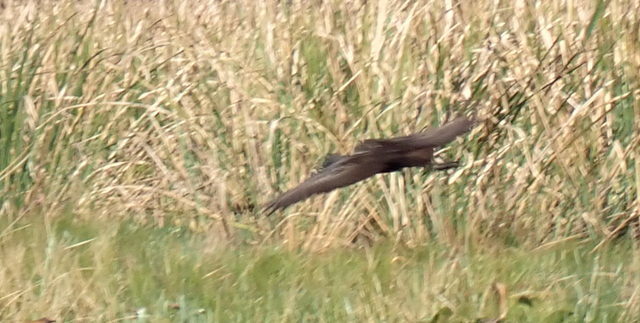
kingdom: Animalia
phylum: Chordata
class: Aves
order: Gruiformes
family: Aramidae
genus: Aramus
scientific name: Aramus guarauna
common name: Limpkin
